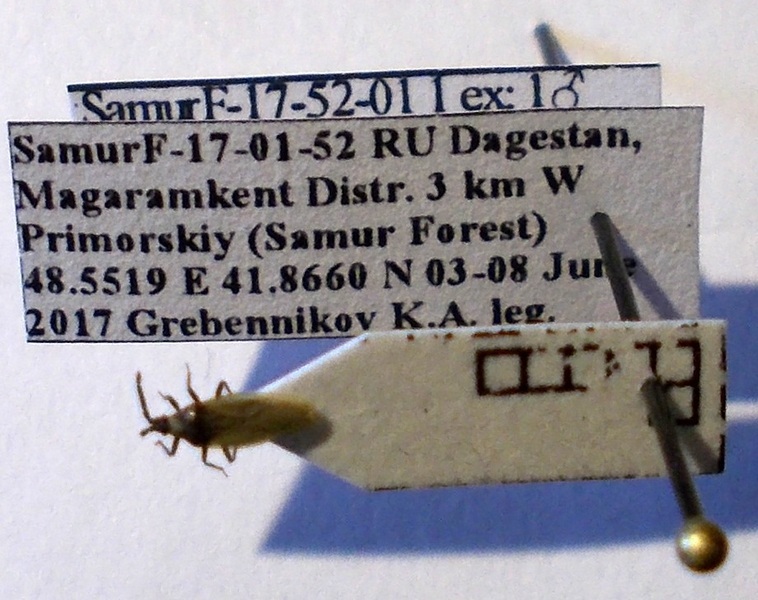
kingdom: Animalia
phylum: Arthropoda
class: Insecta
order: Hemiptera
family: Tingidae
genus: Catoplatus
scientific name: Catoplatus carthusianus
